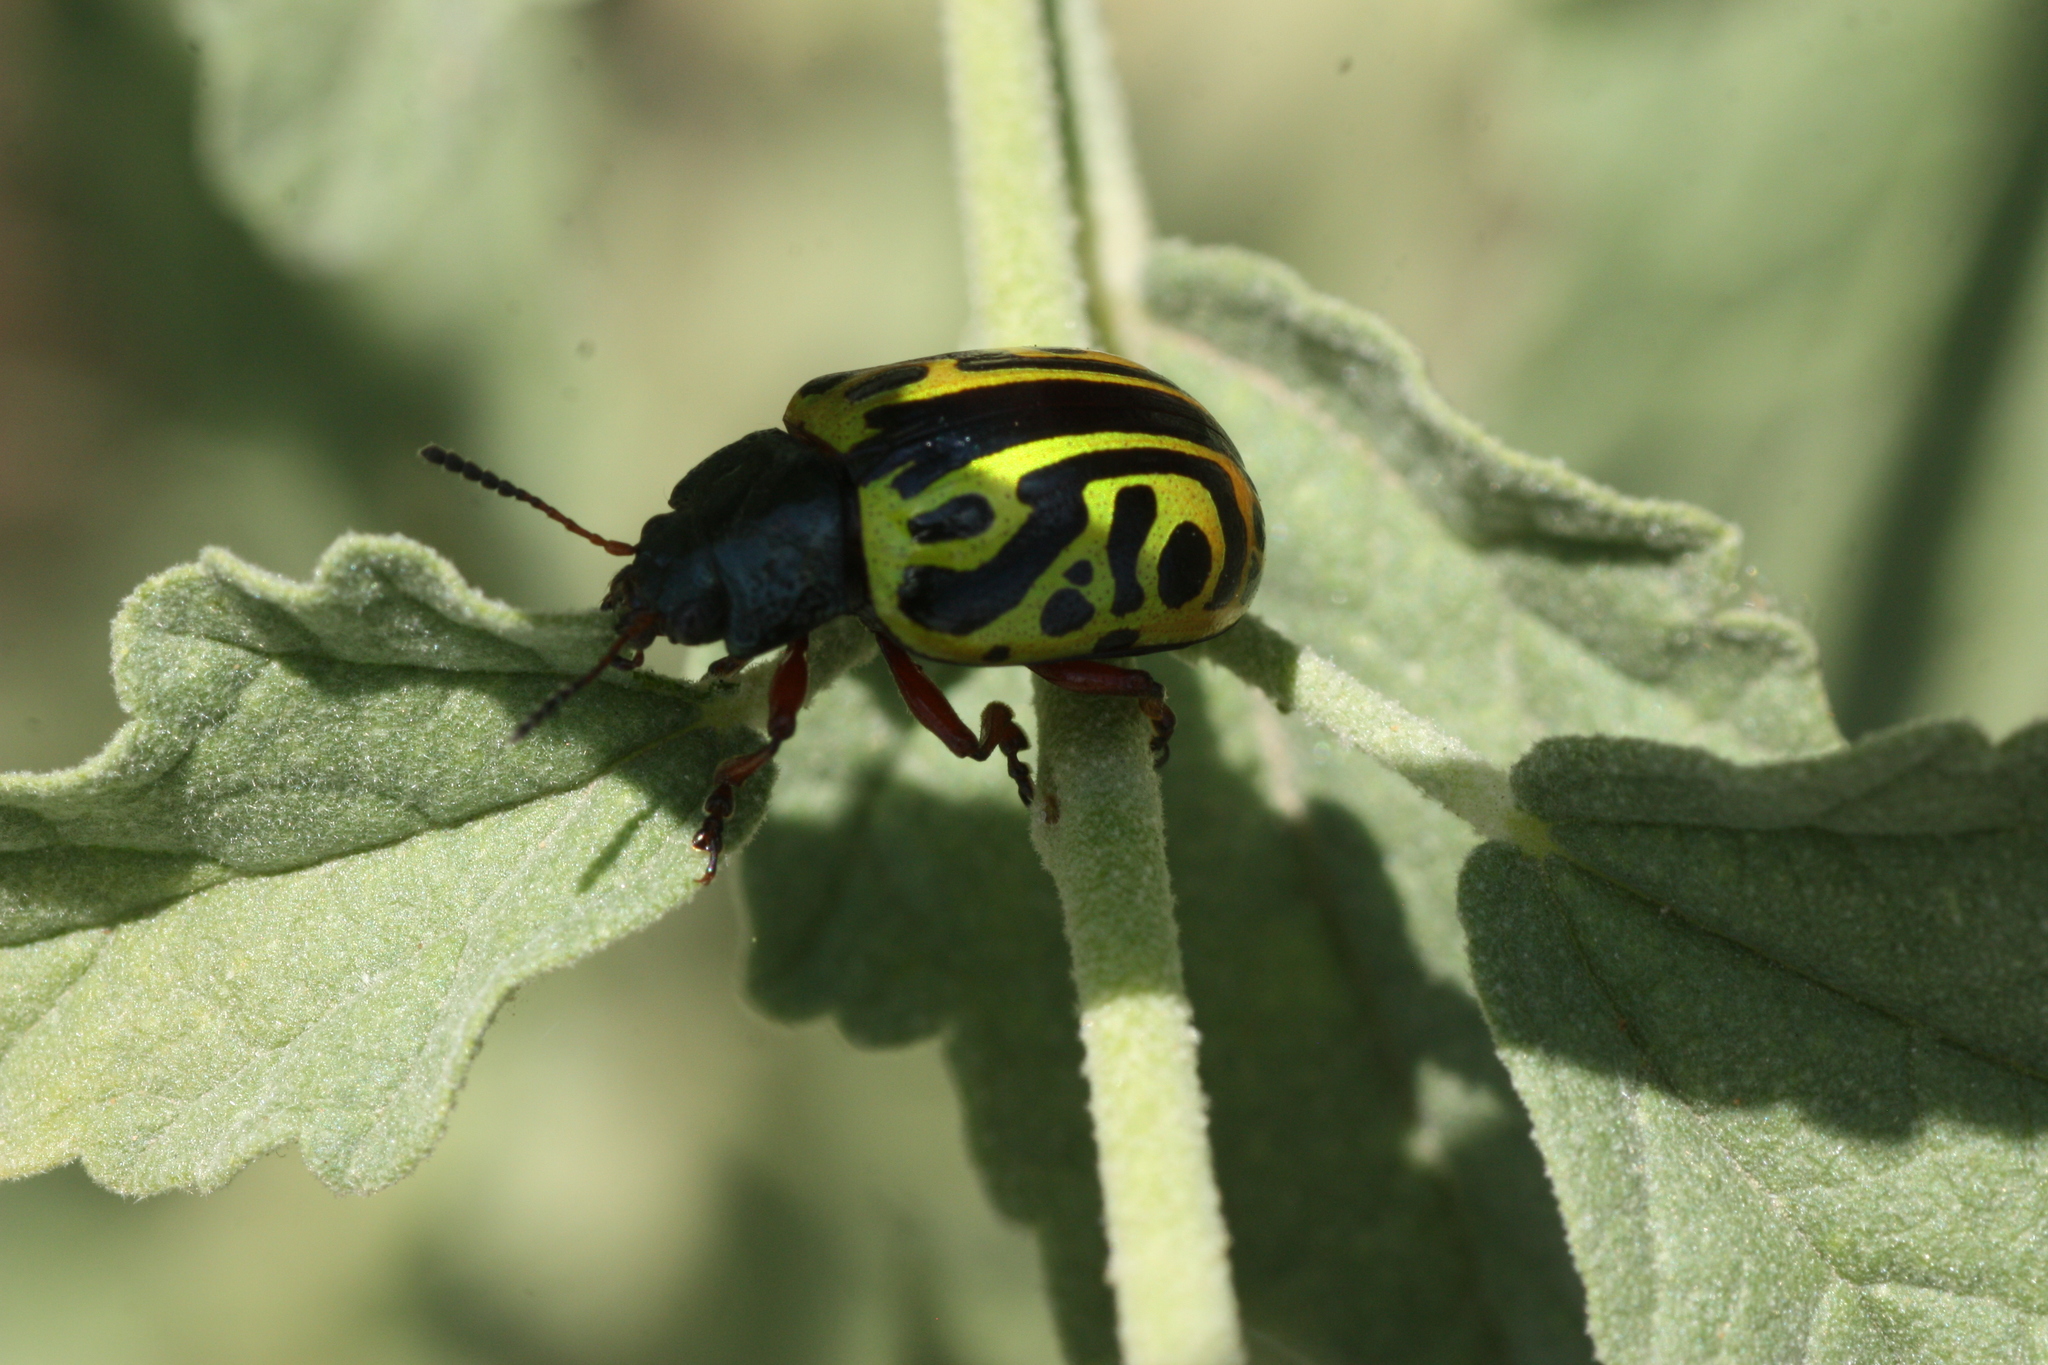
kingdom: Animalia
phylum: Arthropoda
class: Insecta
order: Coleoptera
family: Chrysomelidae
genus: Calligrapha
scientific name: Calligrapha serpentina
